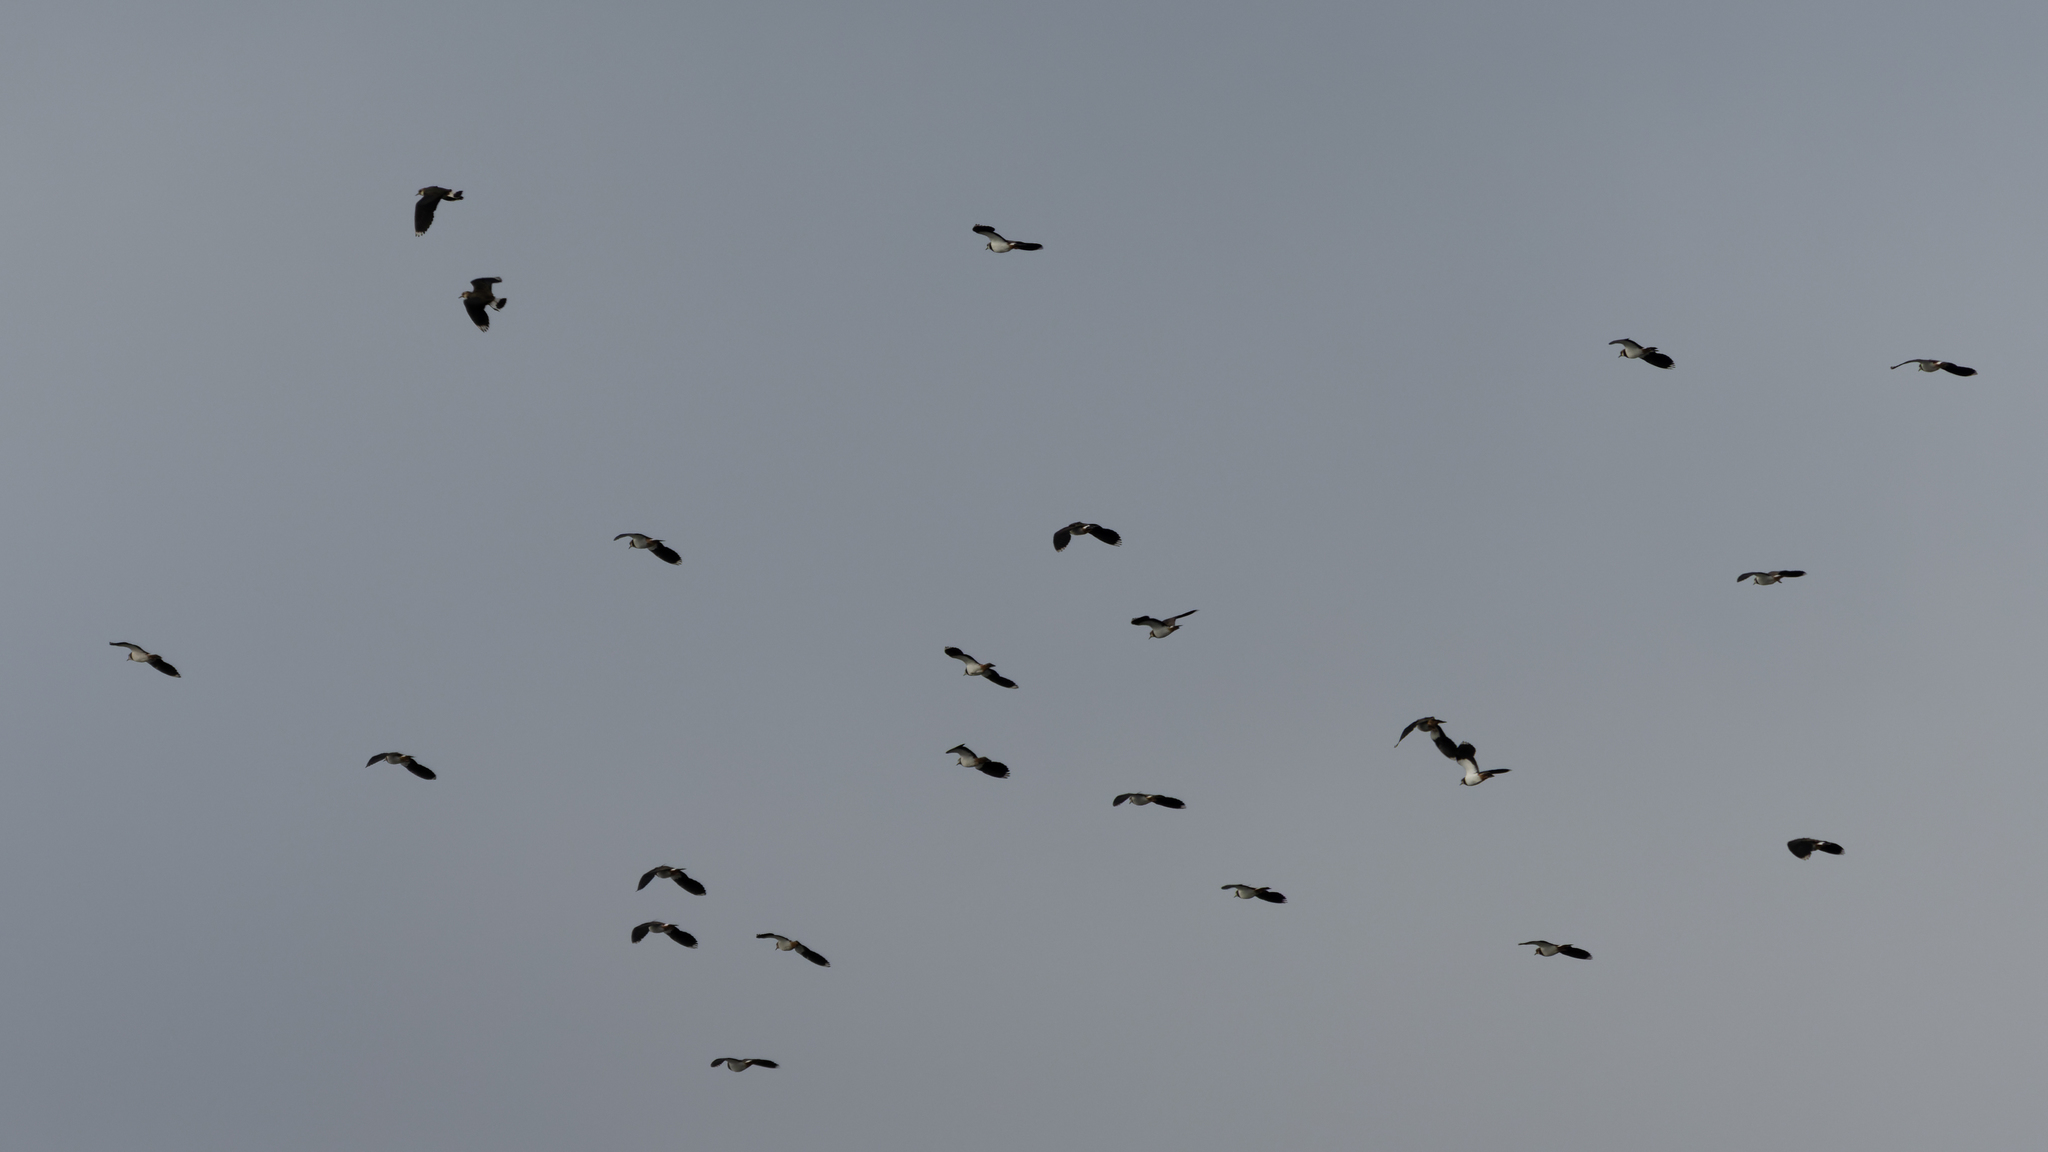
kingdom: Animalia
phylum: Chordata
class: Aves
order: Charadriiformes
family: Charadriidae
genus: Vanellus
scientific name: Vanellus vanellus
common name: Northern lapwing
